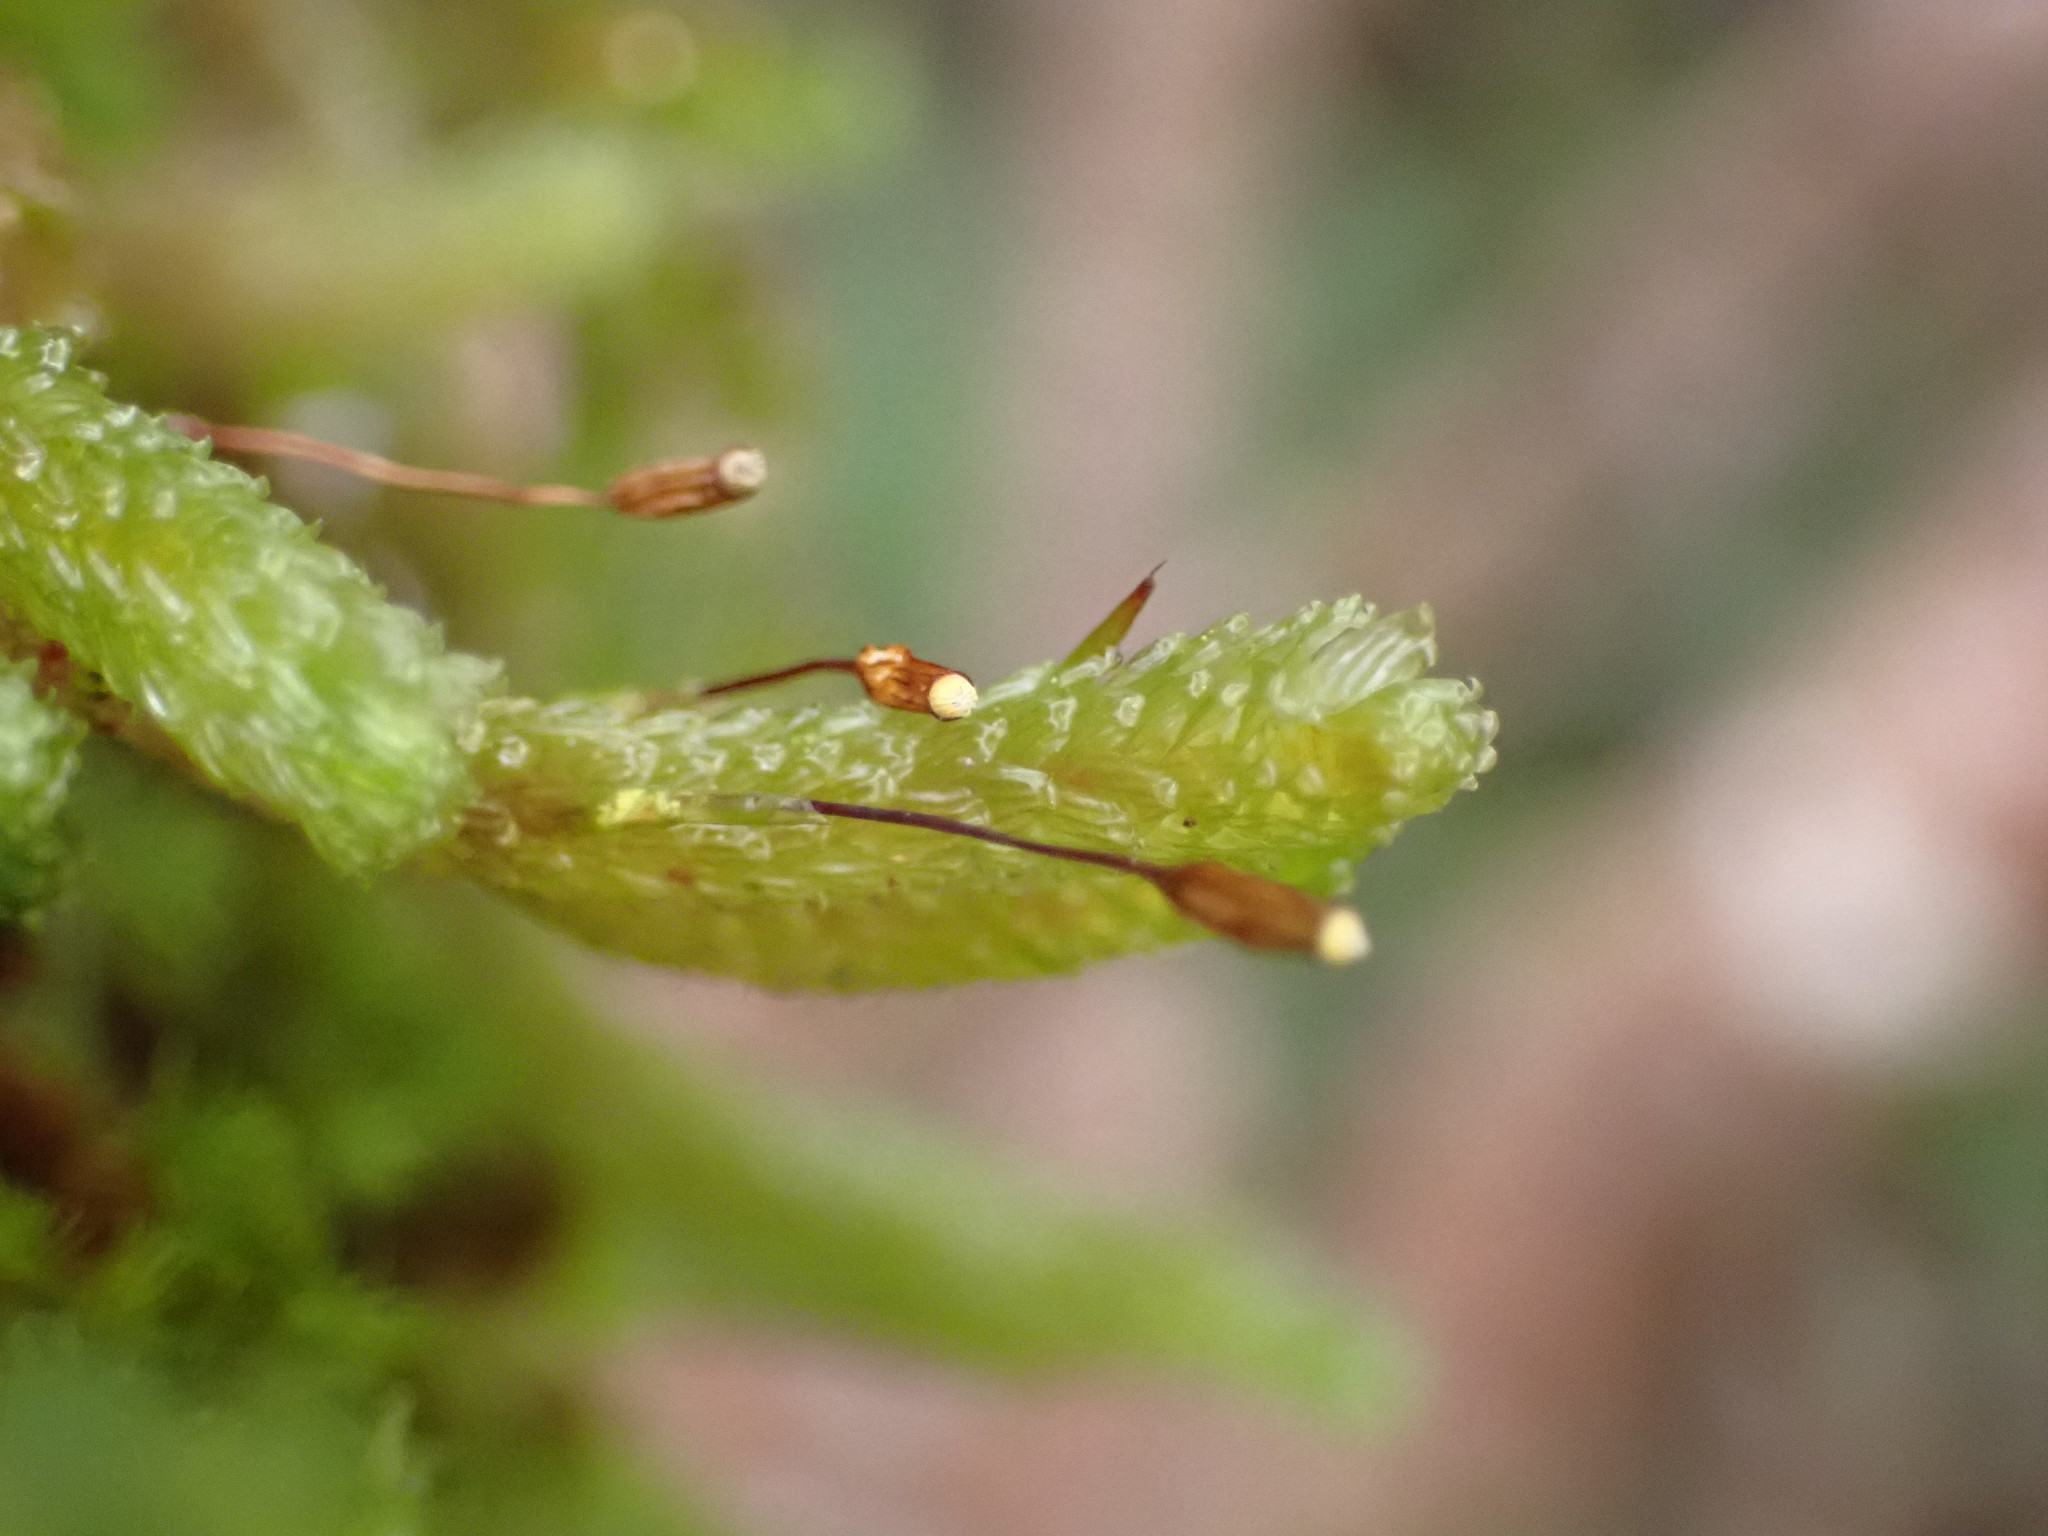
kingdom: Plantae
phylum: Bryophyta
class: Bryopsida
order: Ptychomniales
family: Ptychomniaceae
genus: Cladomnion
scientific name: Cladomnion ericoides
